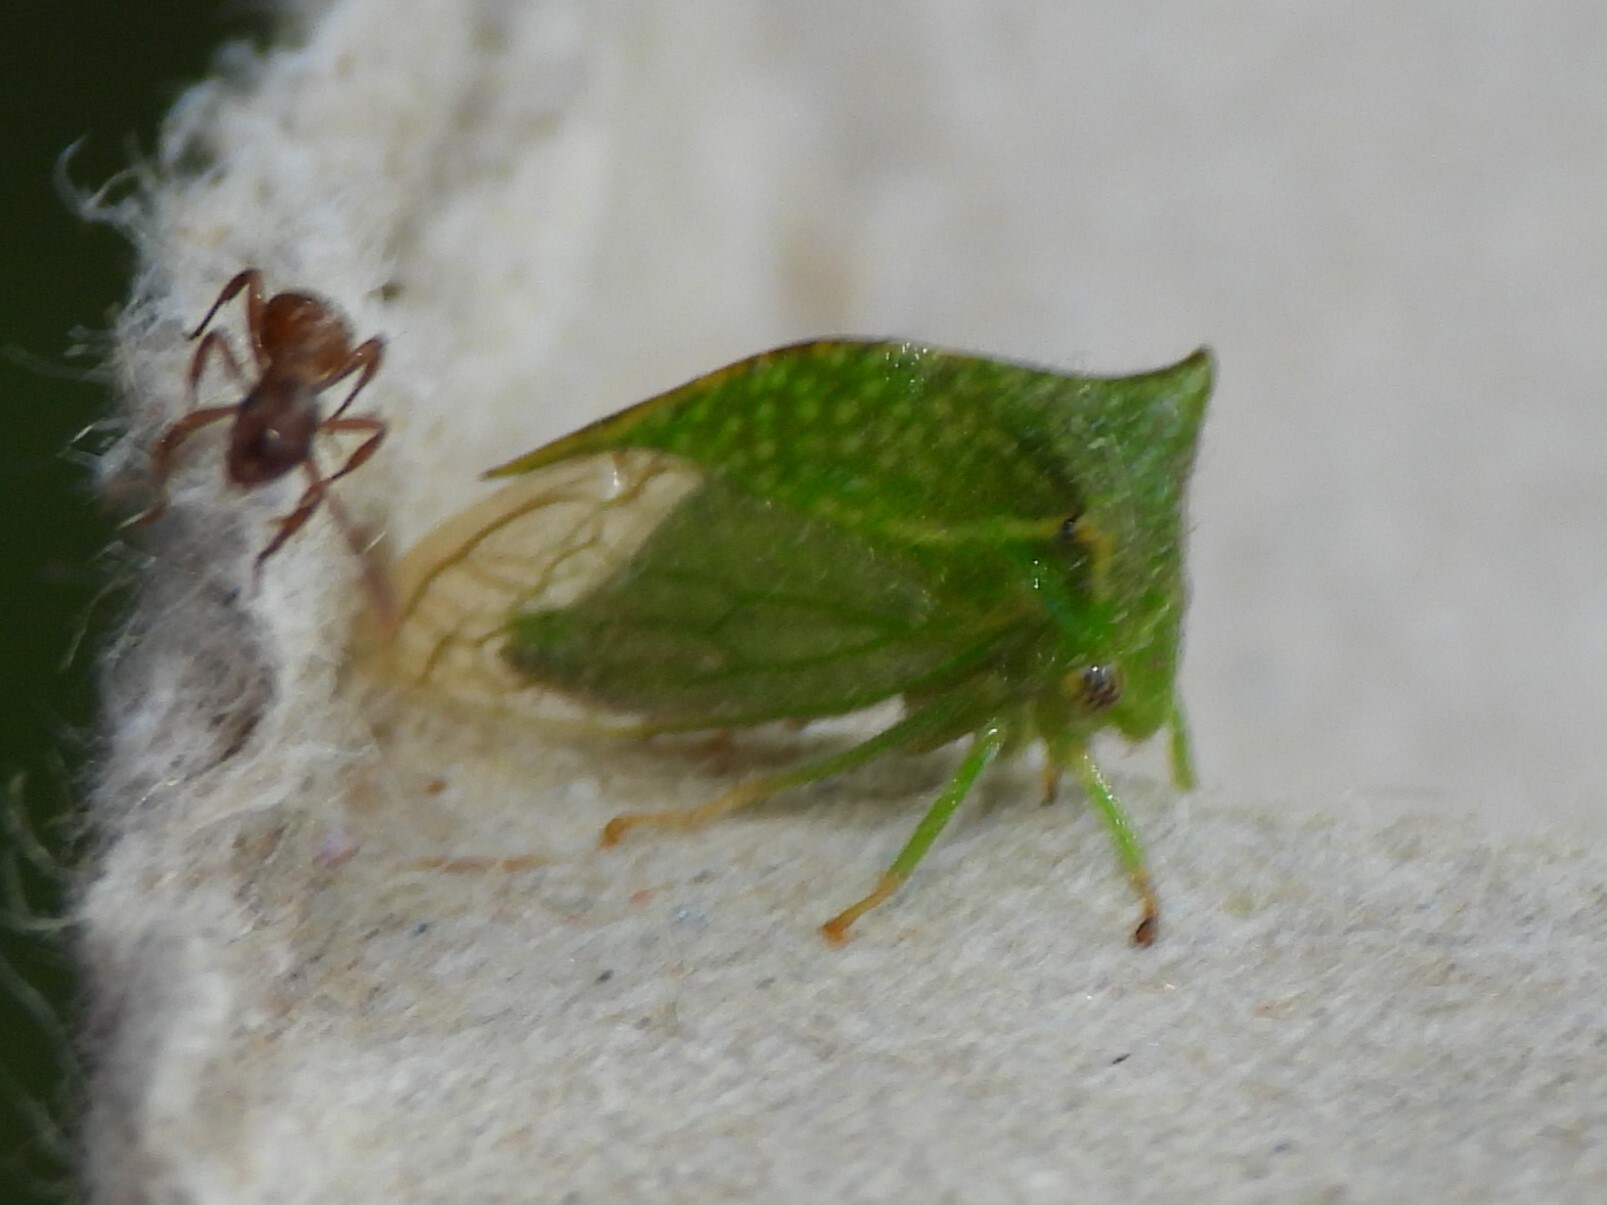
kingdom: Animalia
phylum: Arthropoda
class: Insecta
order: Hemiptera
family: Membracidae
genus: Stictocephala
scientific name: Stictocephala bisonia
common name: American buffalo treehopper
